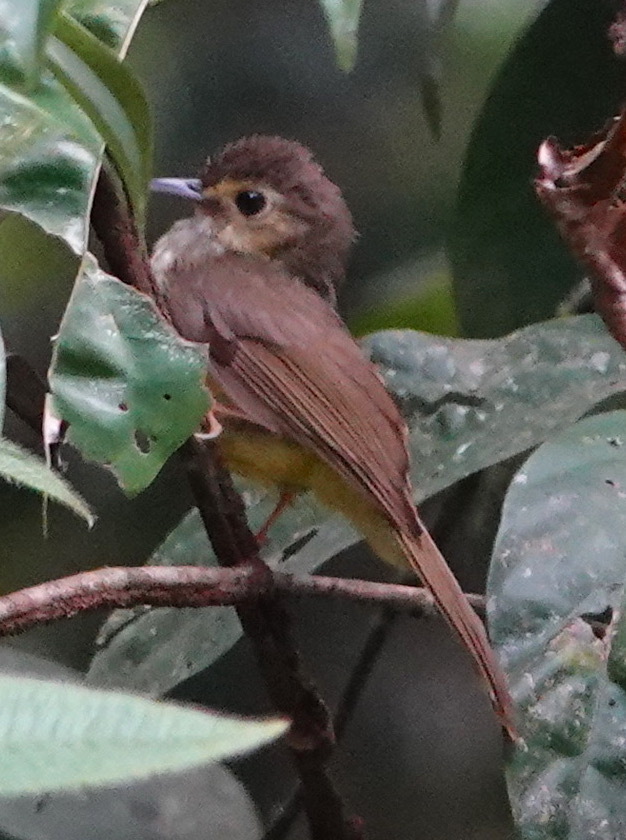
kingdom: Animalia
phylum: Chordata
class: Aves
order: Passeriformes
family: Pycnonotidae
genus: Tricholestes
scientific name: Tricholestes criniger
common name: Hairy-backed bulbul
